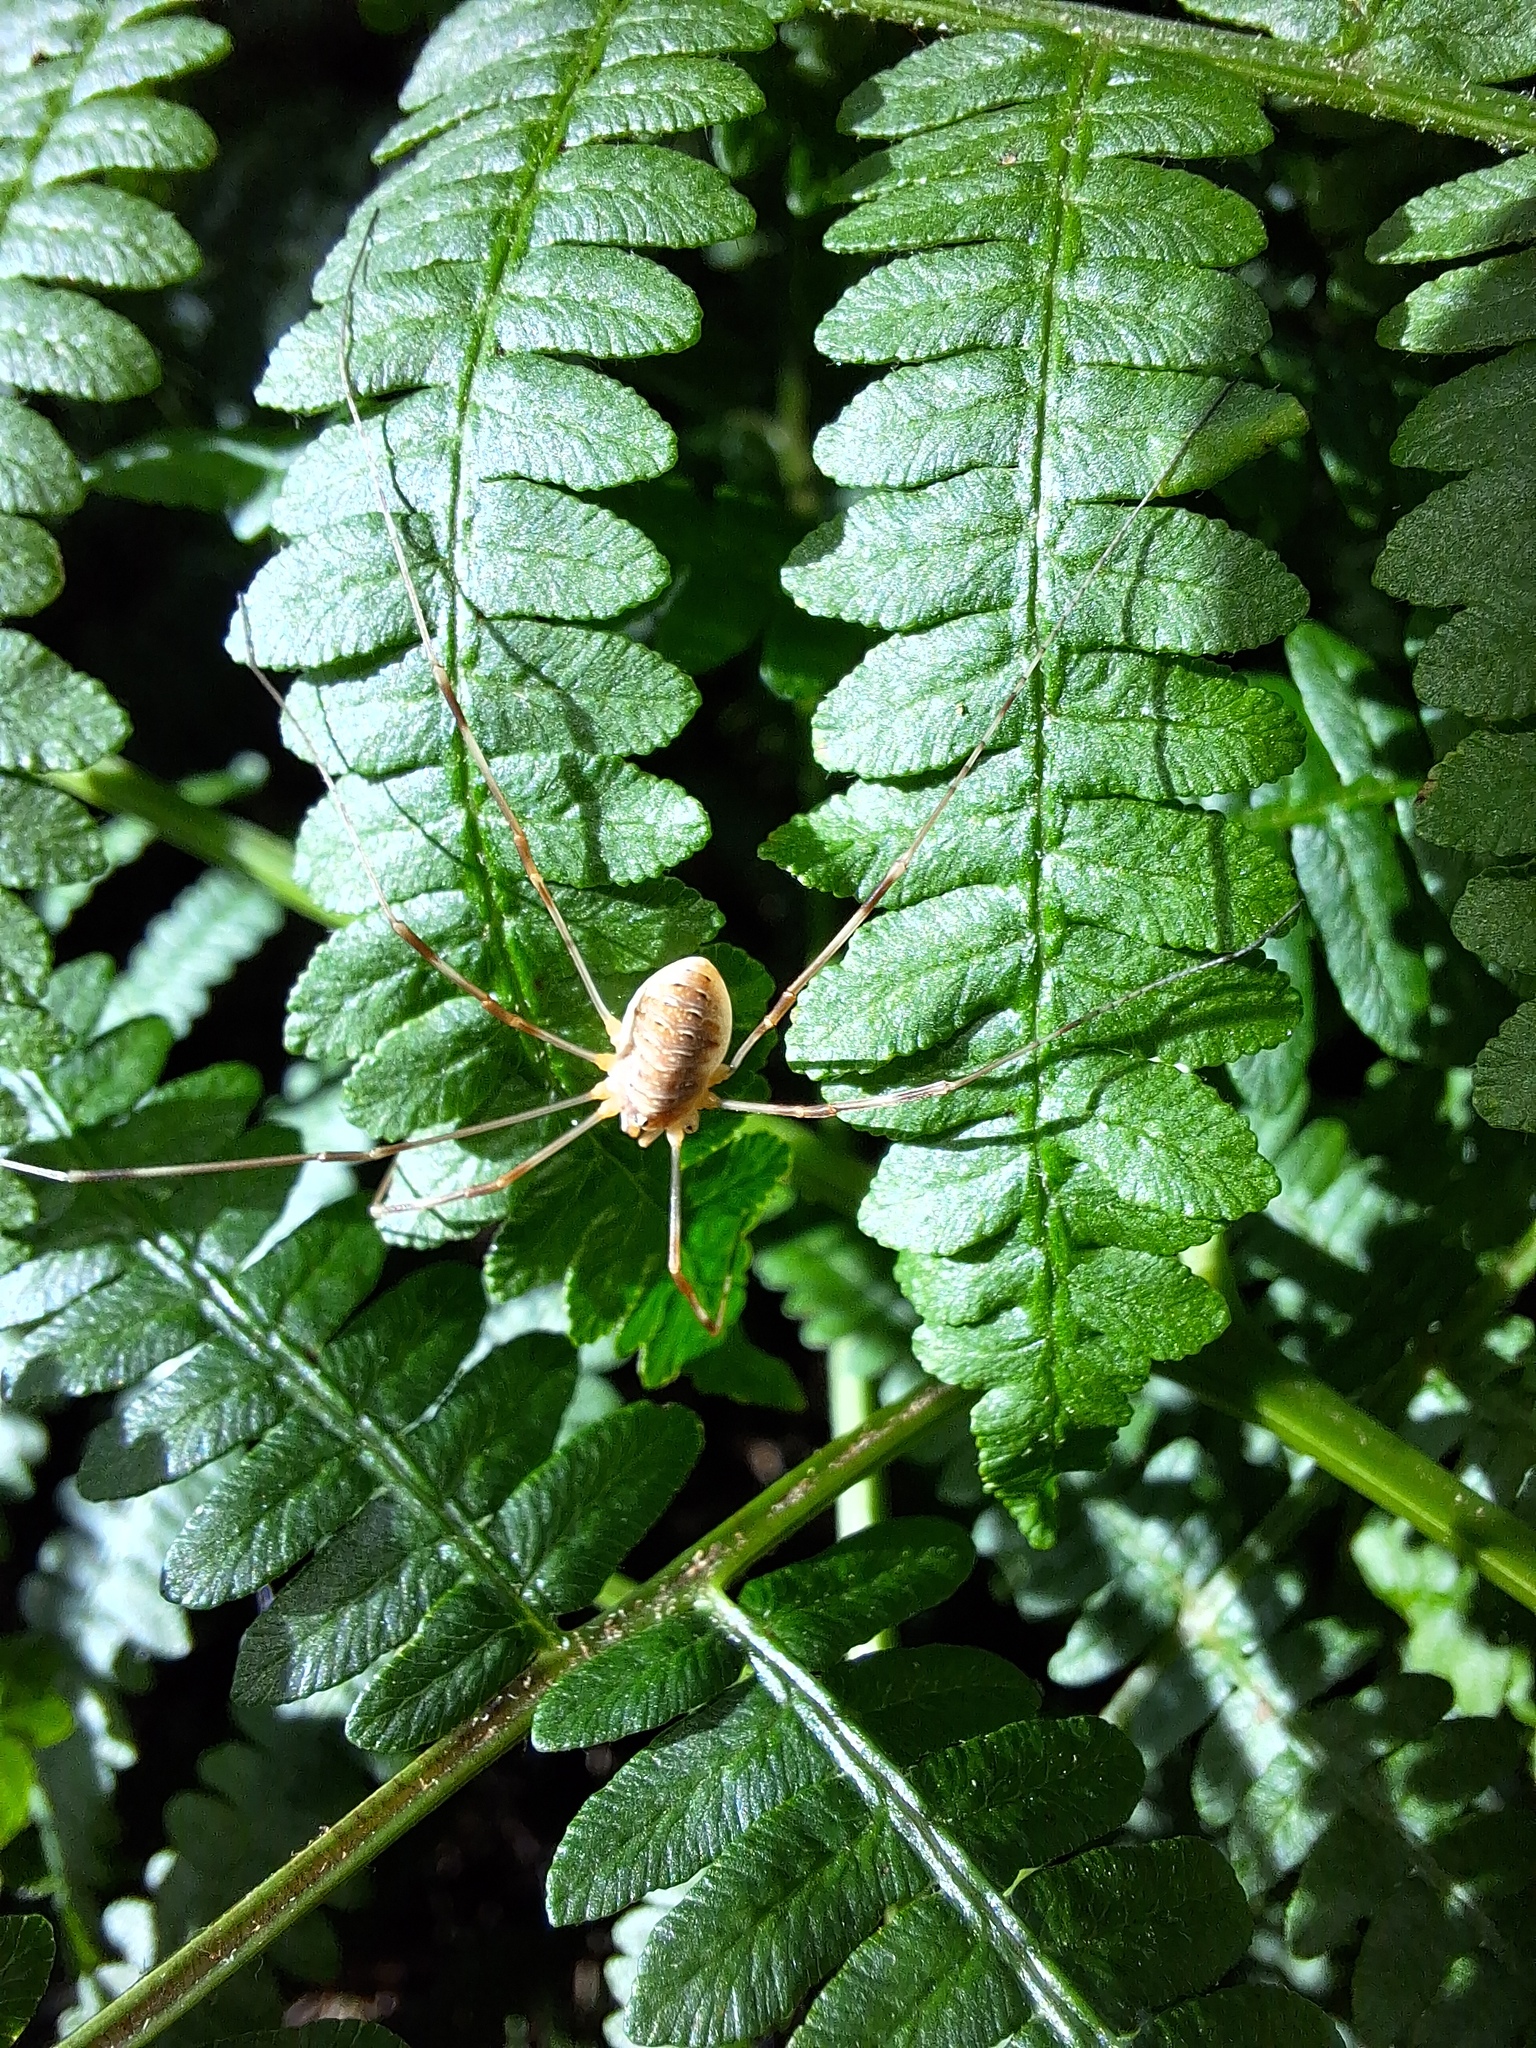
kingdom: Animalia
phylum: Arthropoda
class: Arachnida
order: Opiliones
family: Phalangiidae
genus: Opilio
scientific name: Opilio canestrinii
